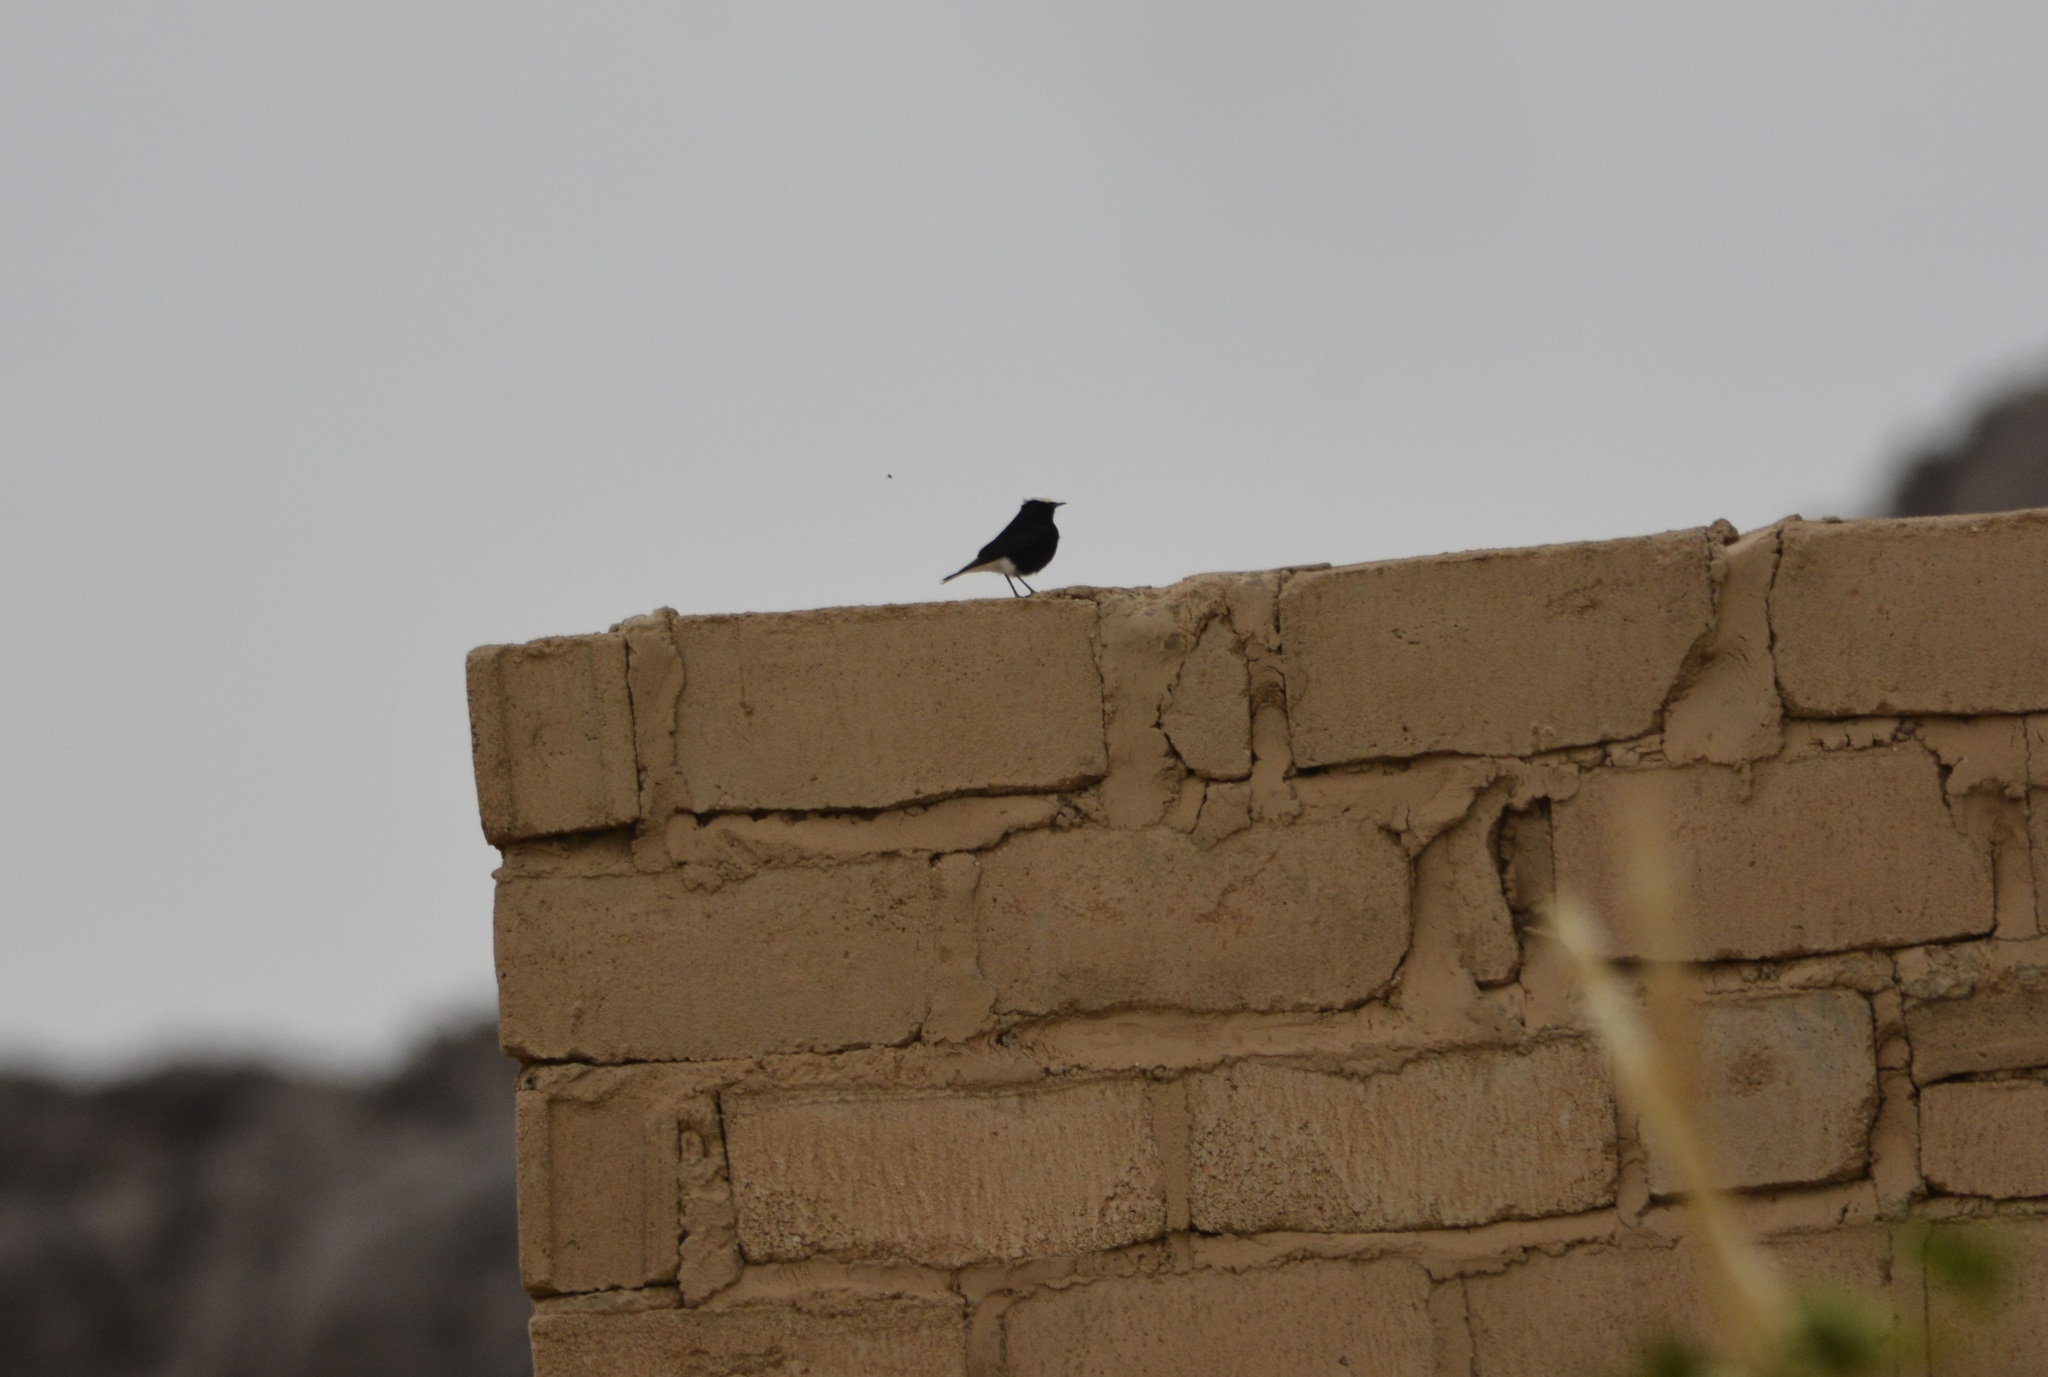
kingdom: Animalia
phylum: Chordata
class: Aves
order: Passeriformes
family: Muscicapidae
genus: Oenanthe
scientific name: Oenanthe leucopyga
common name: White-crowned wheatear
